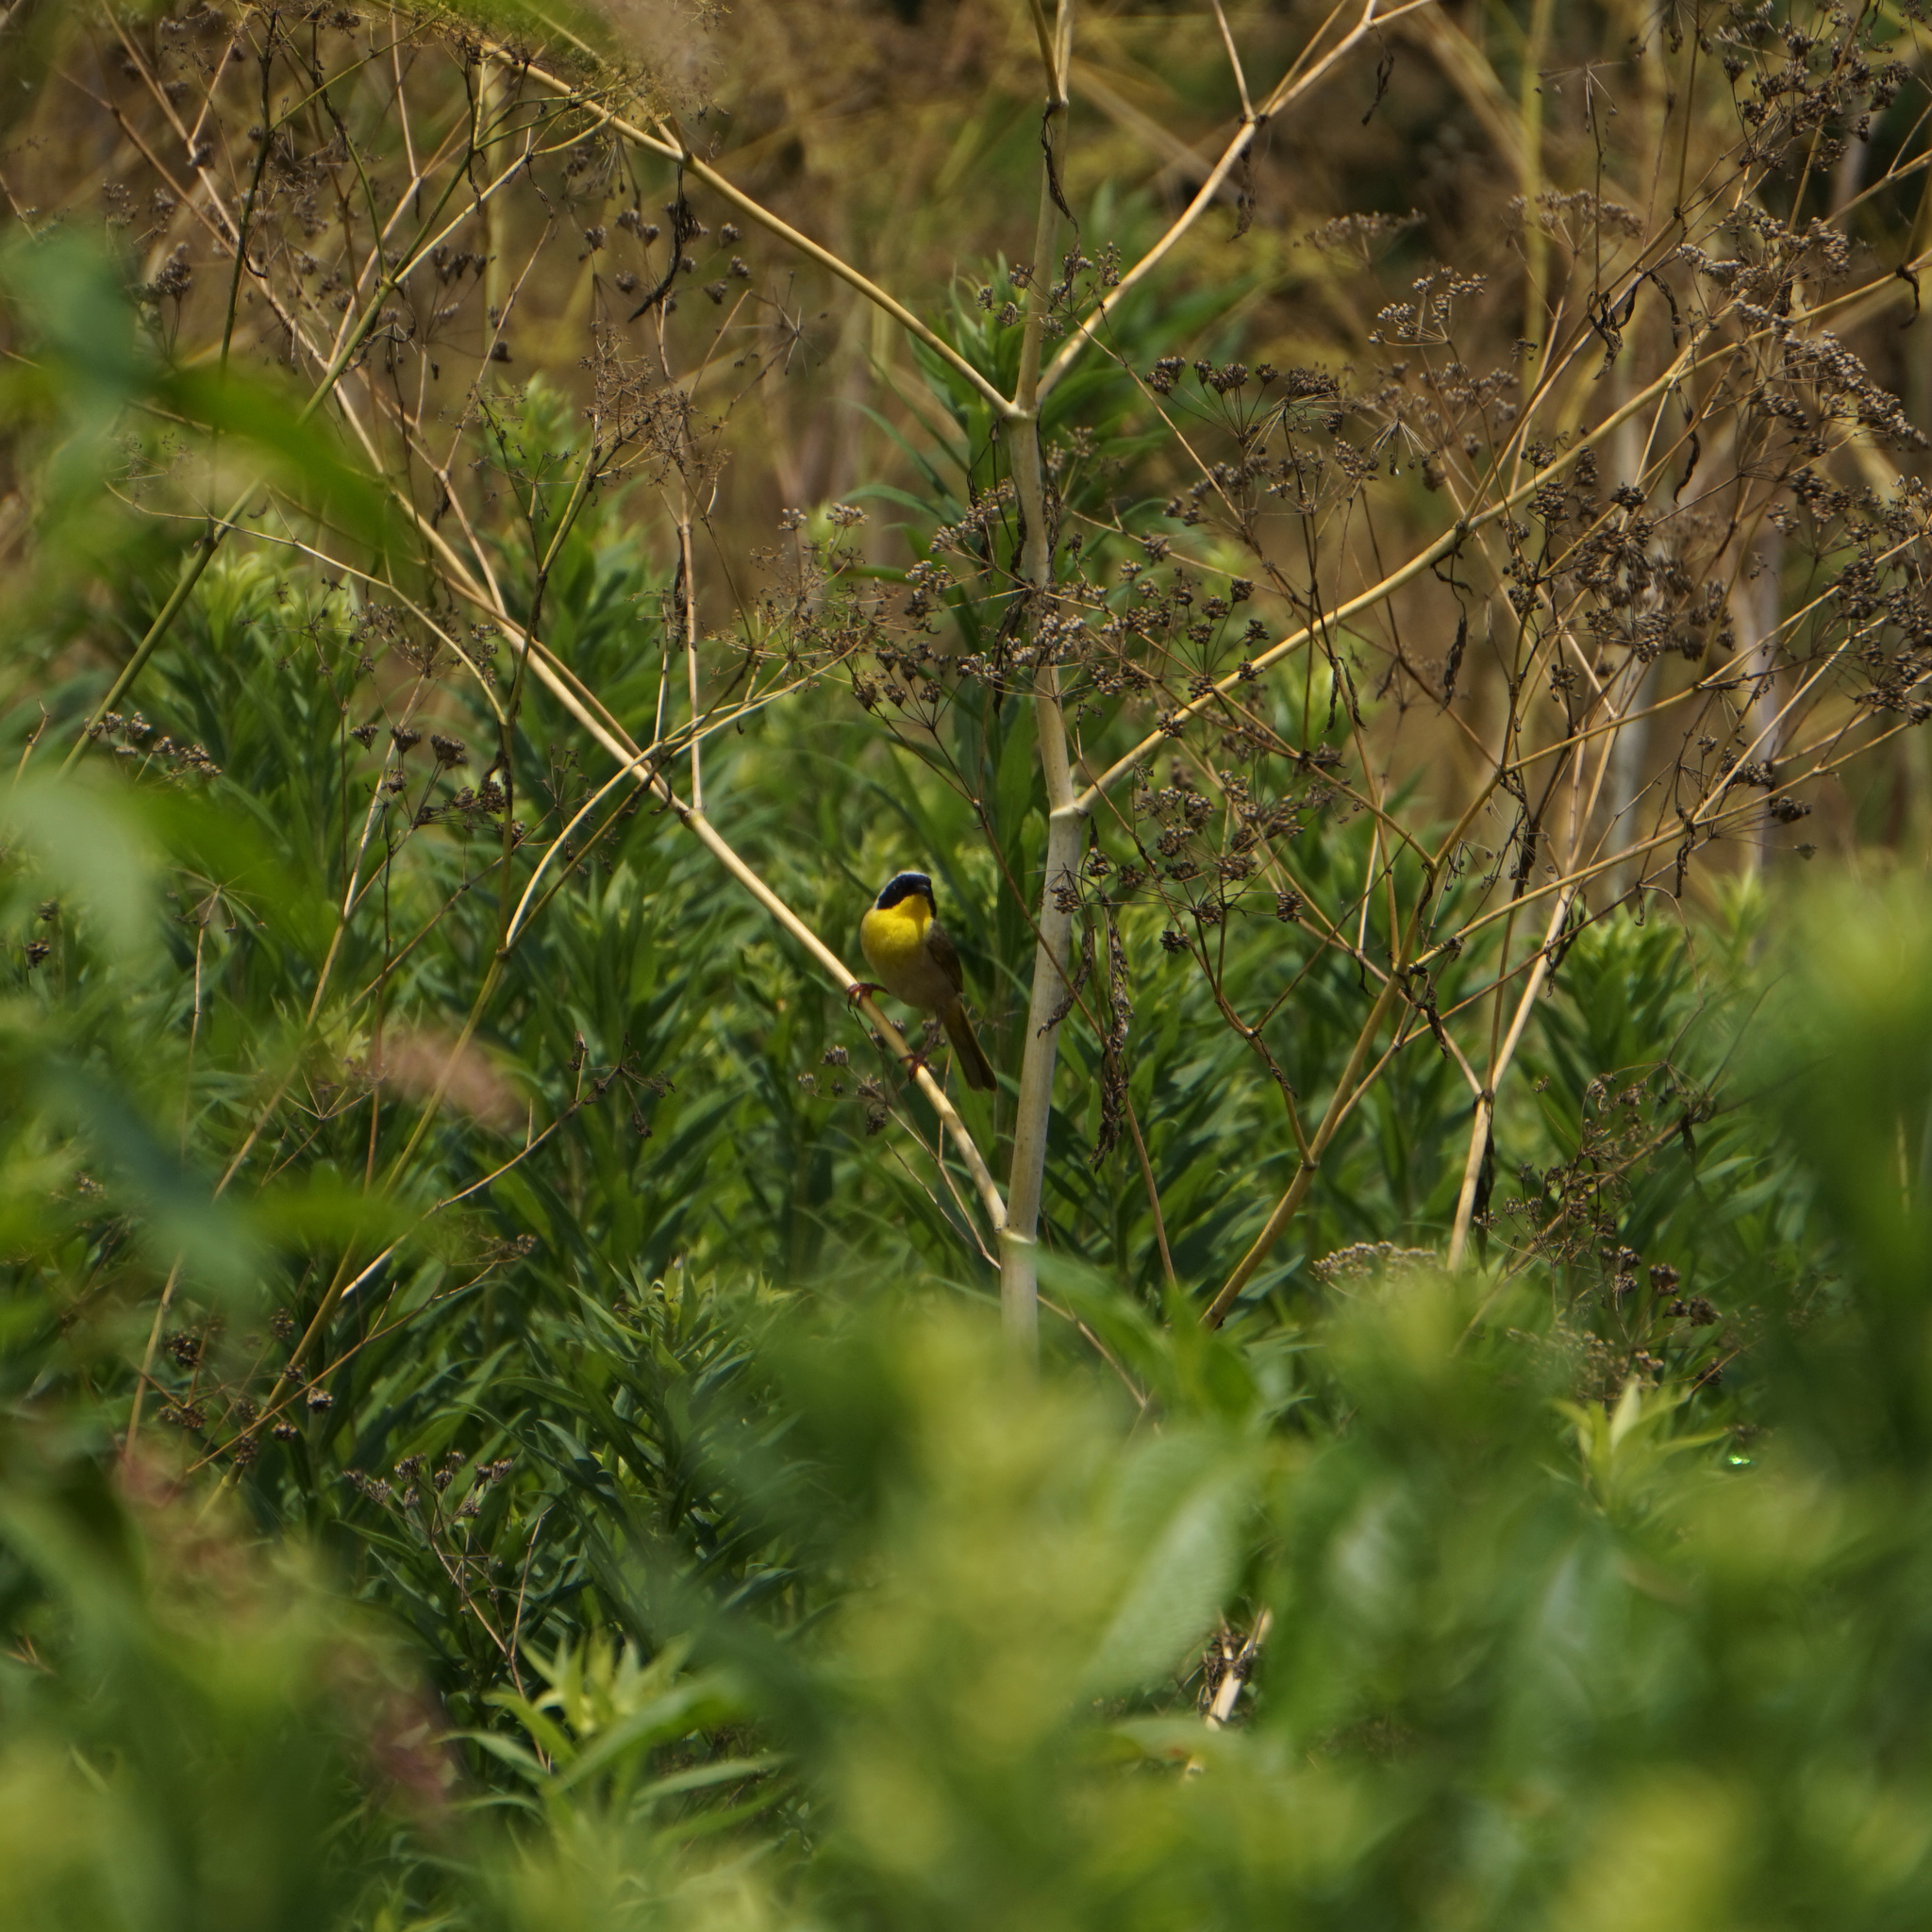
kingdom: Animalia
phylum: Chordata
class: Aves
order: Passeriformes
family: Parulidae
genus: Geothlypis
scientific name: Geothlypis trichas
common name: Common yellowthroat
